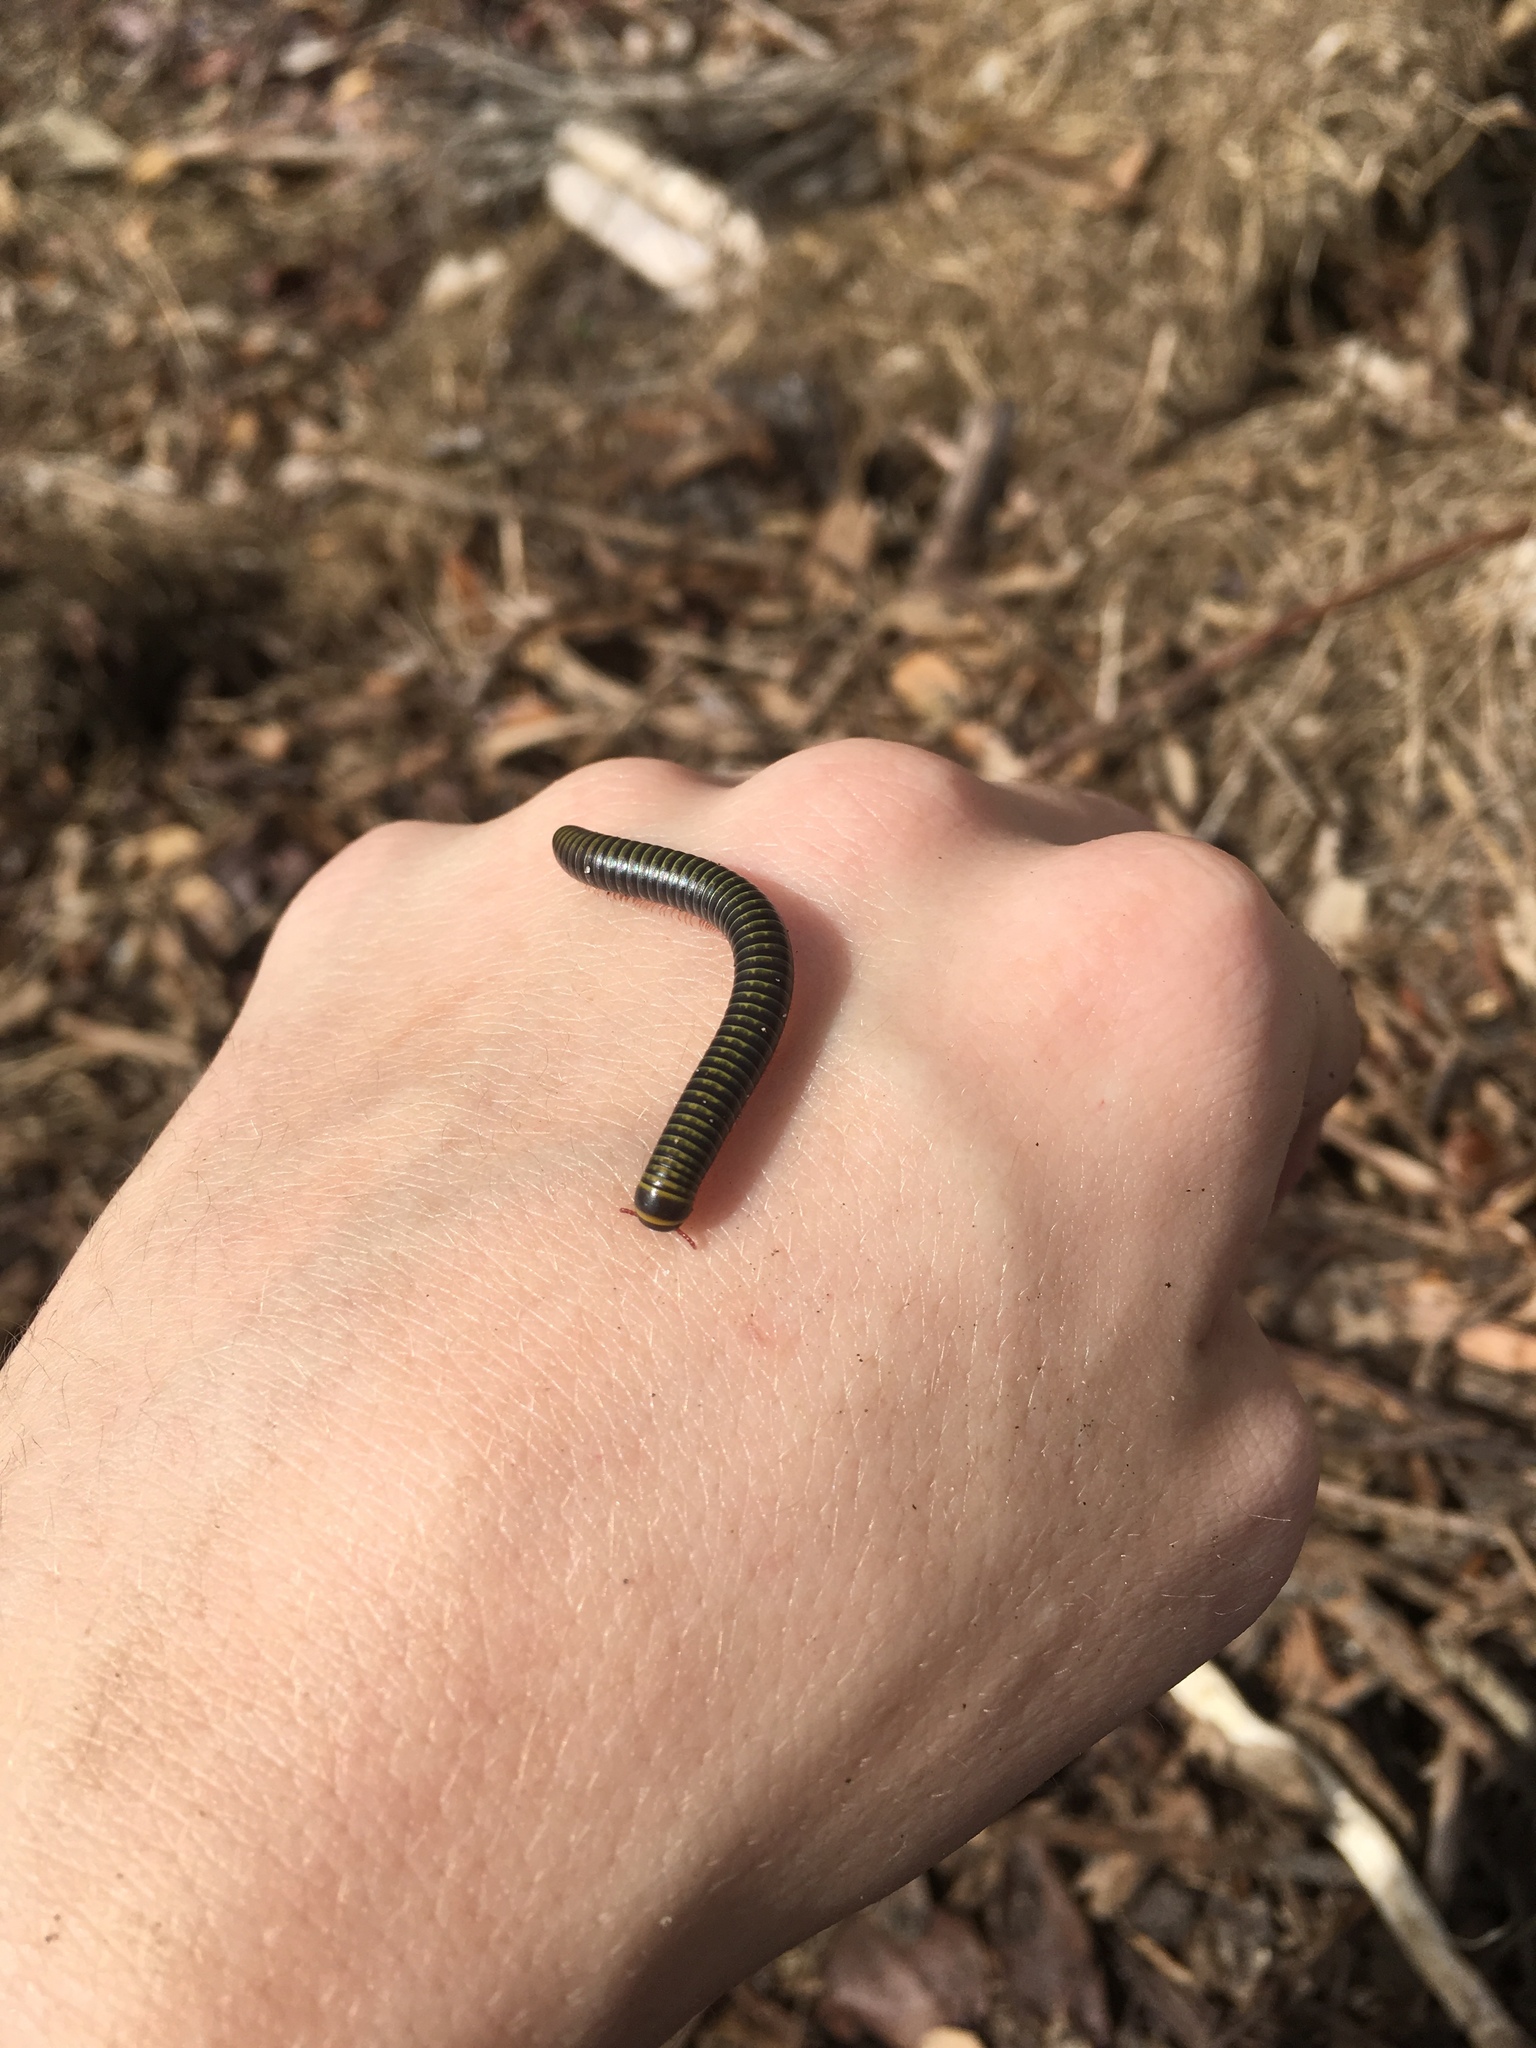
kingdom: Animalia
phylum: Arthropoda
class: Diplopoda
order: Spirobolida
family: Rhinocricidae
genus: Anadenobolus
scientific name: Anadenobolus monilicornis
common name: Caribbean millipede
